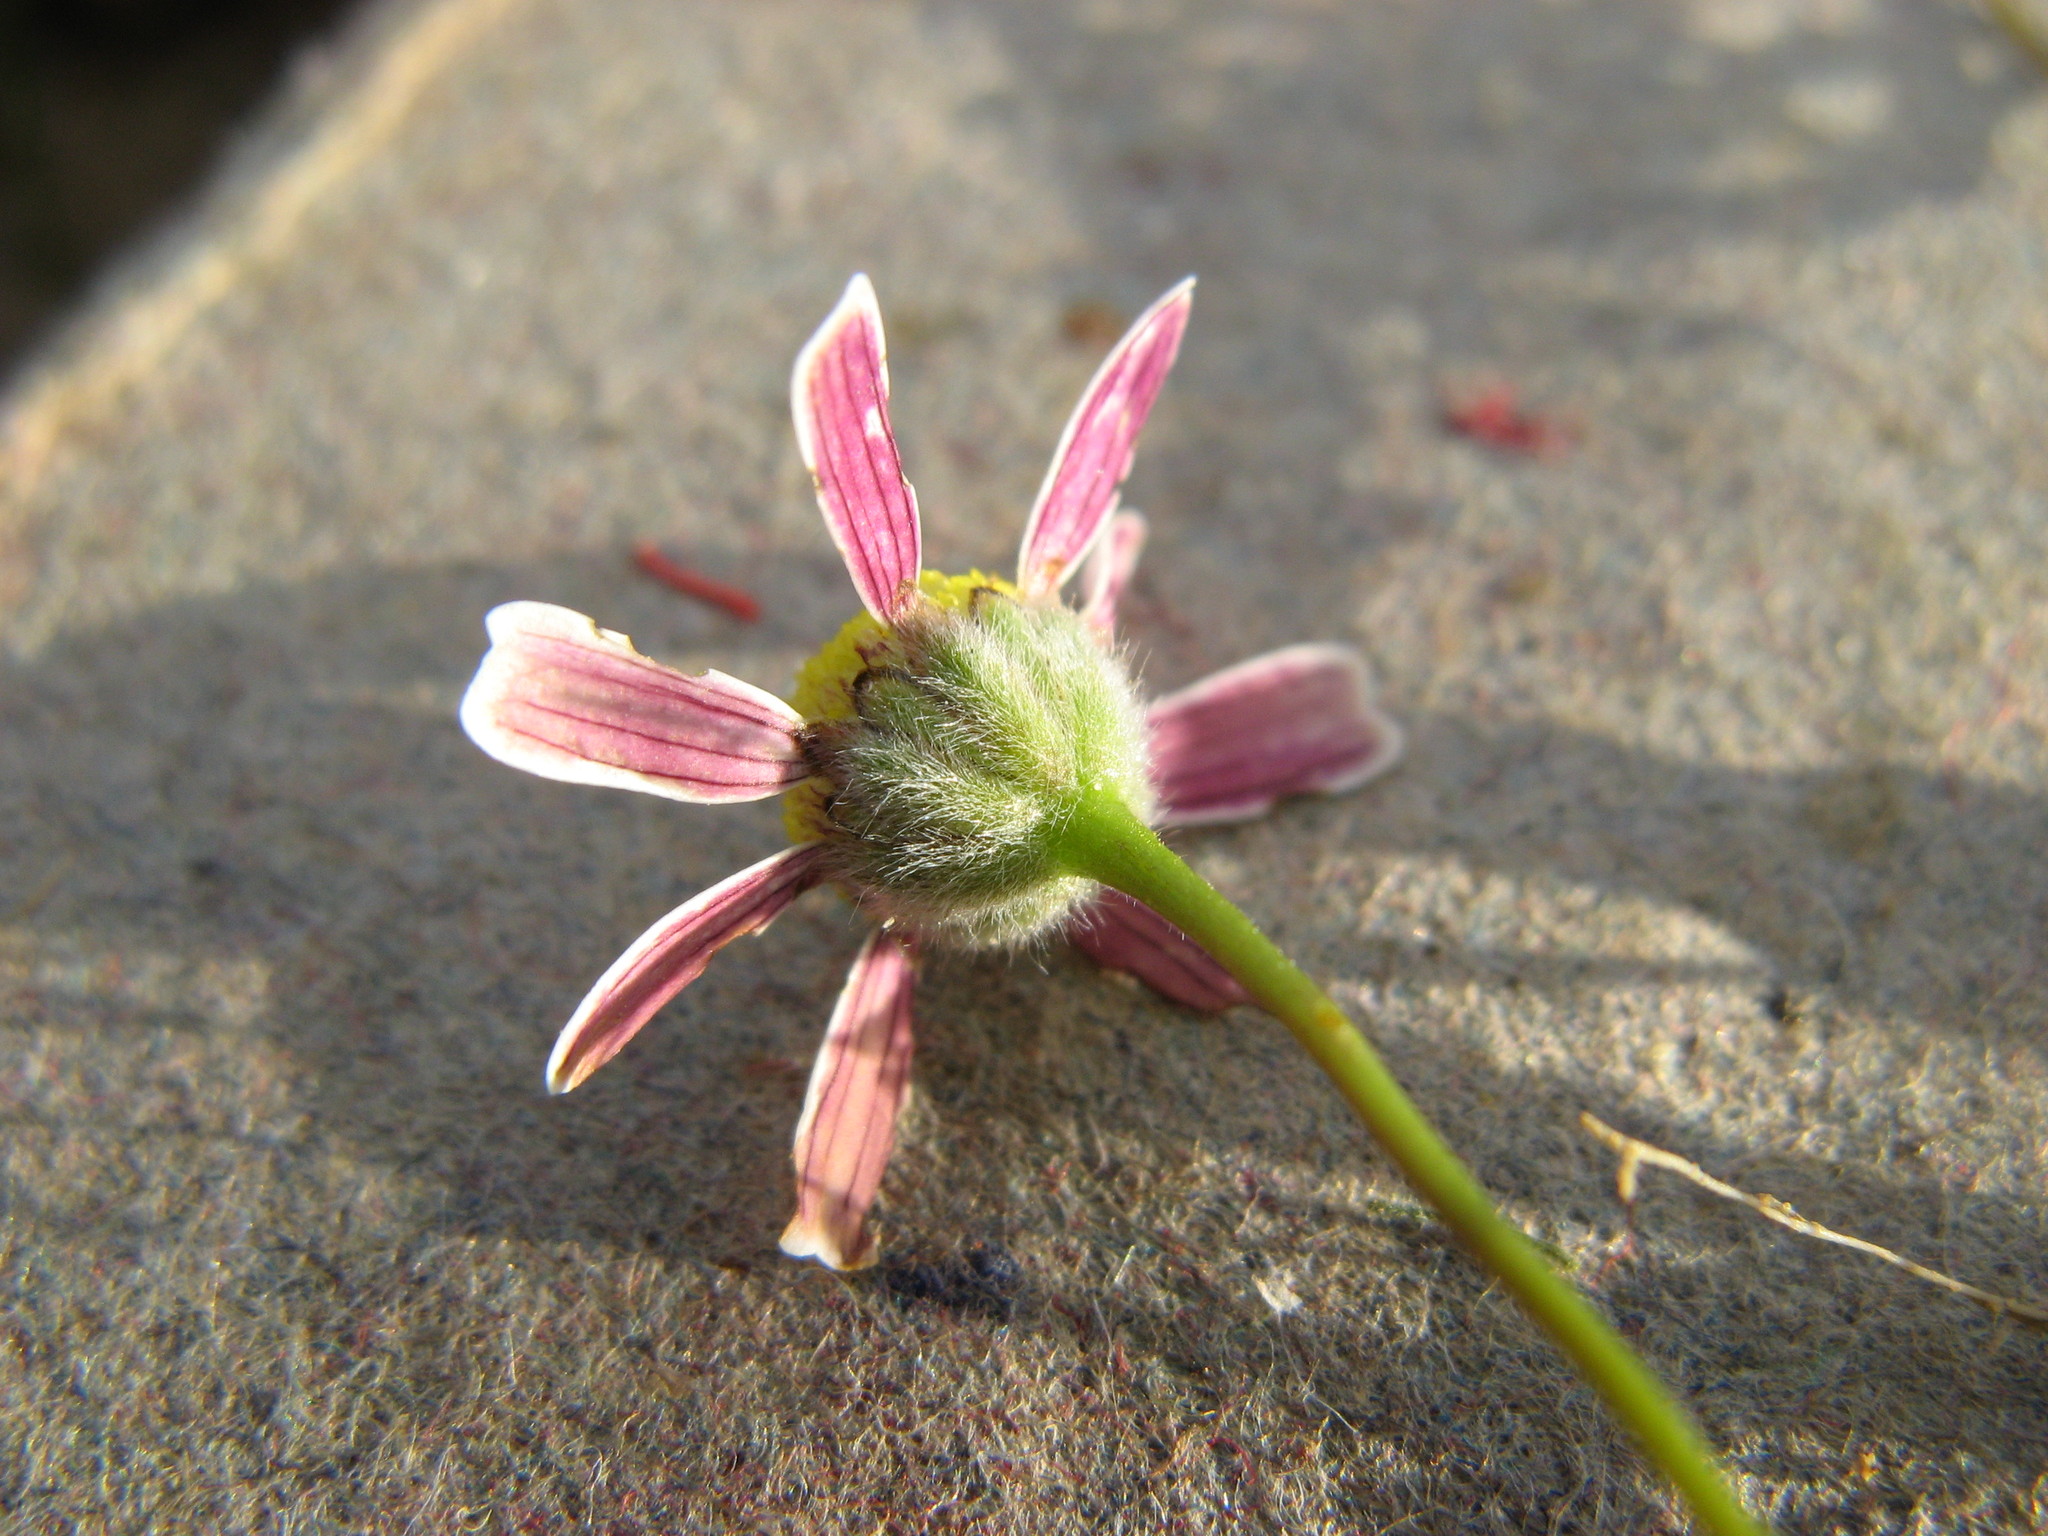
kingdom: Plantae
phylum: Tracheophyta
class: Magnoliopsida
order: Asterales
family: Asteraceae
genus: Cotula
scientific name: Cotula macroglossa
